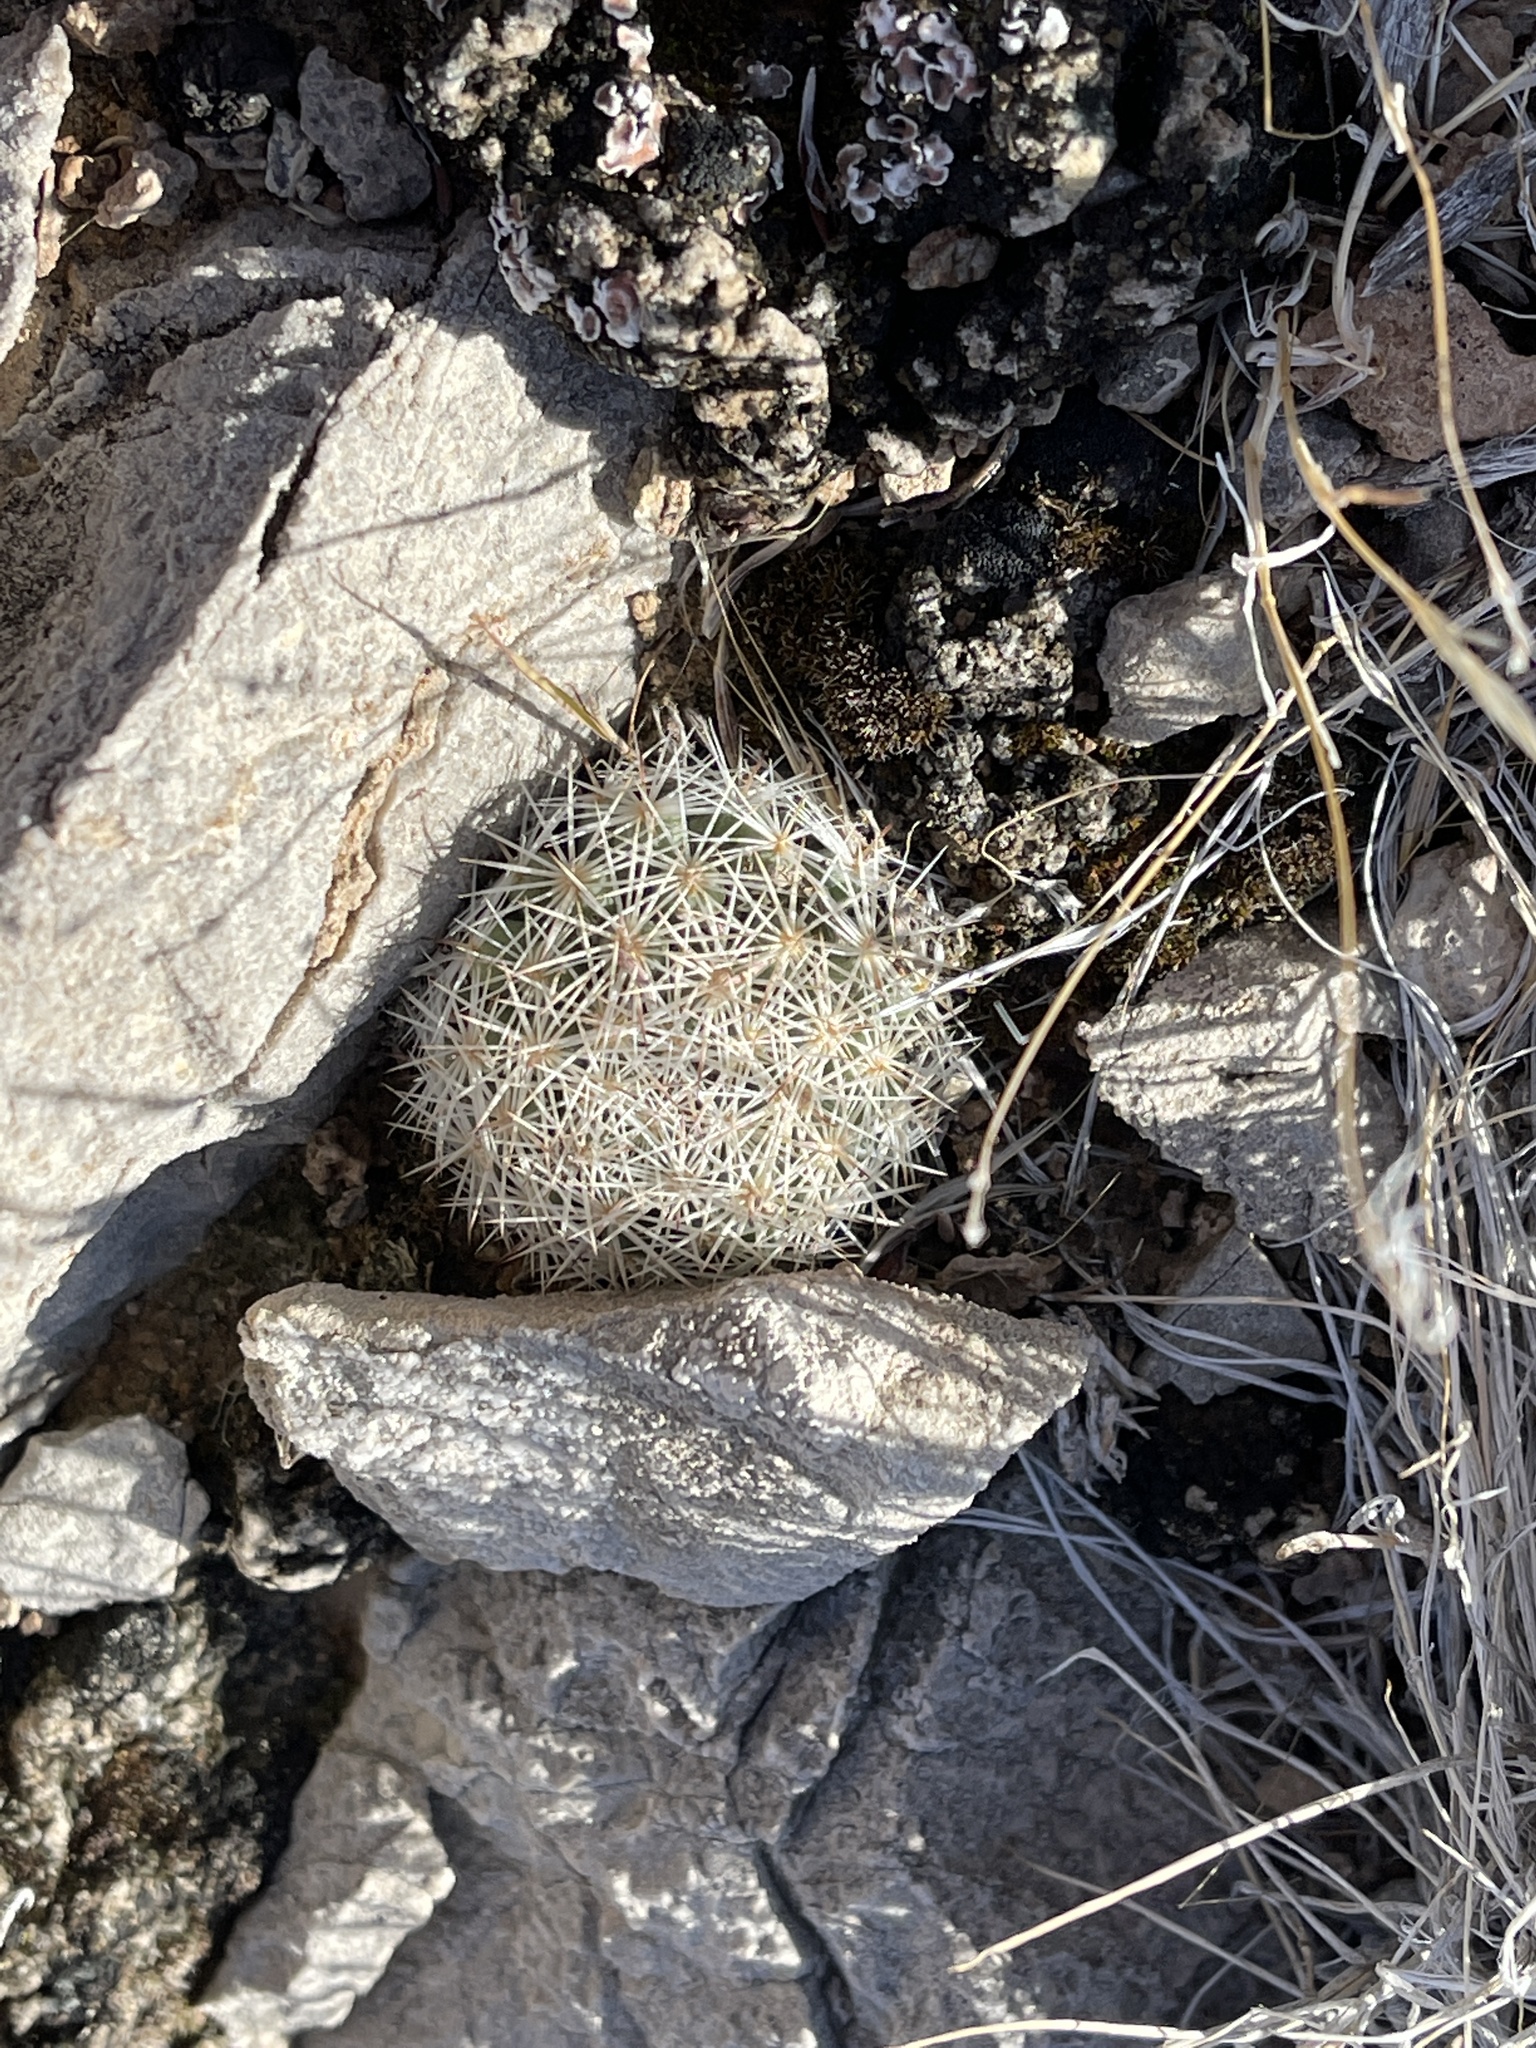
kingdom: Plantae
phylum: Tracheophyta
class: Magnoliopsida
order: Caryophyllales
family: Cactaceae
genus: Pelecyphora
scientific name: Pelecyphora vivipara
